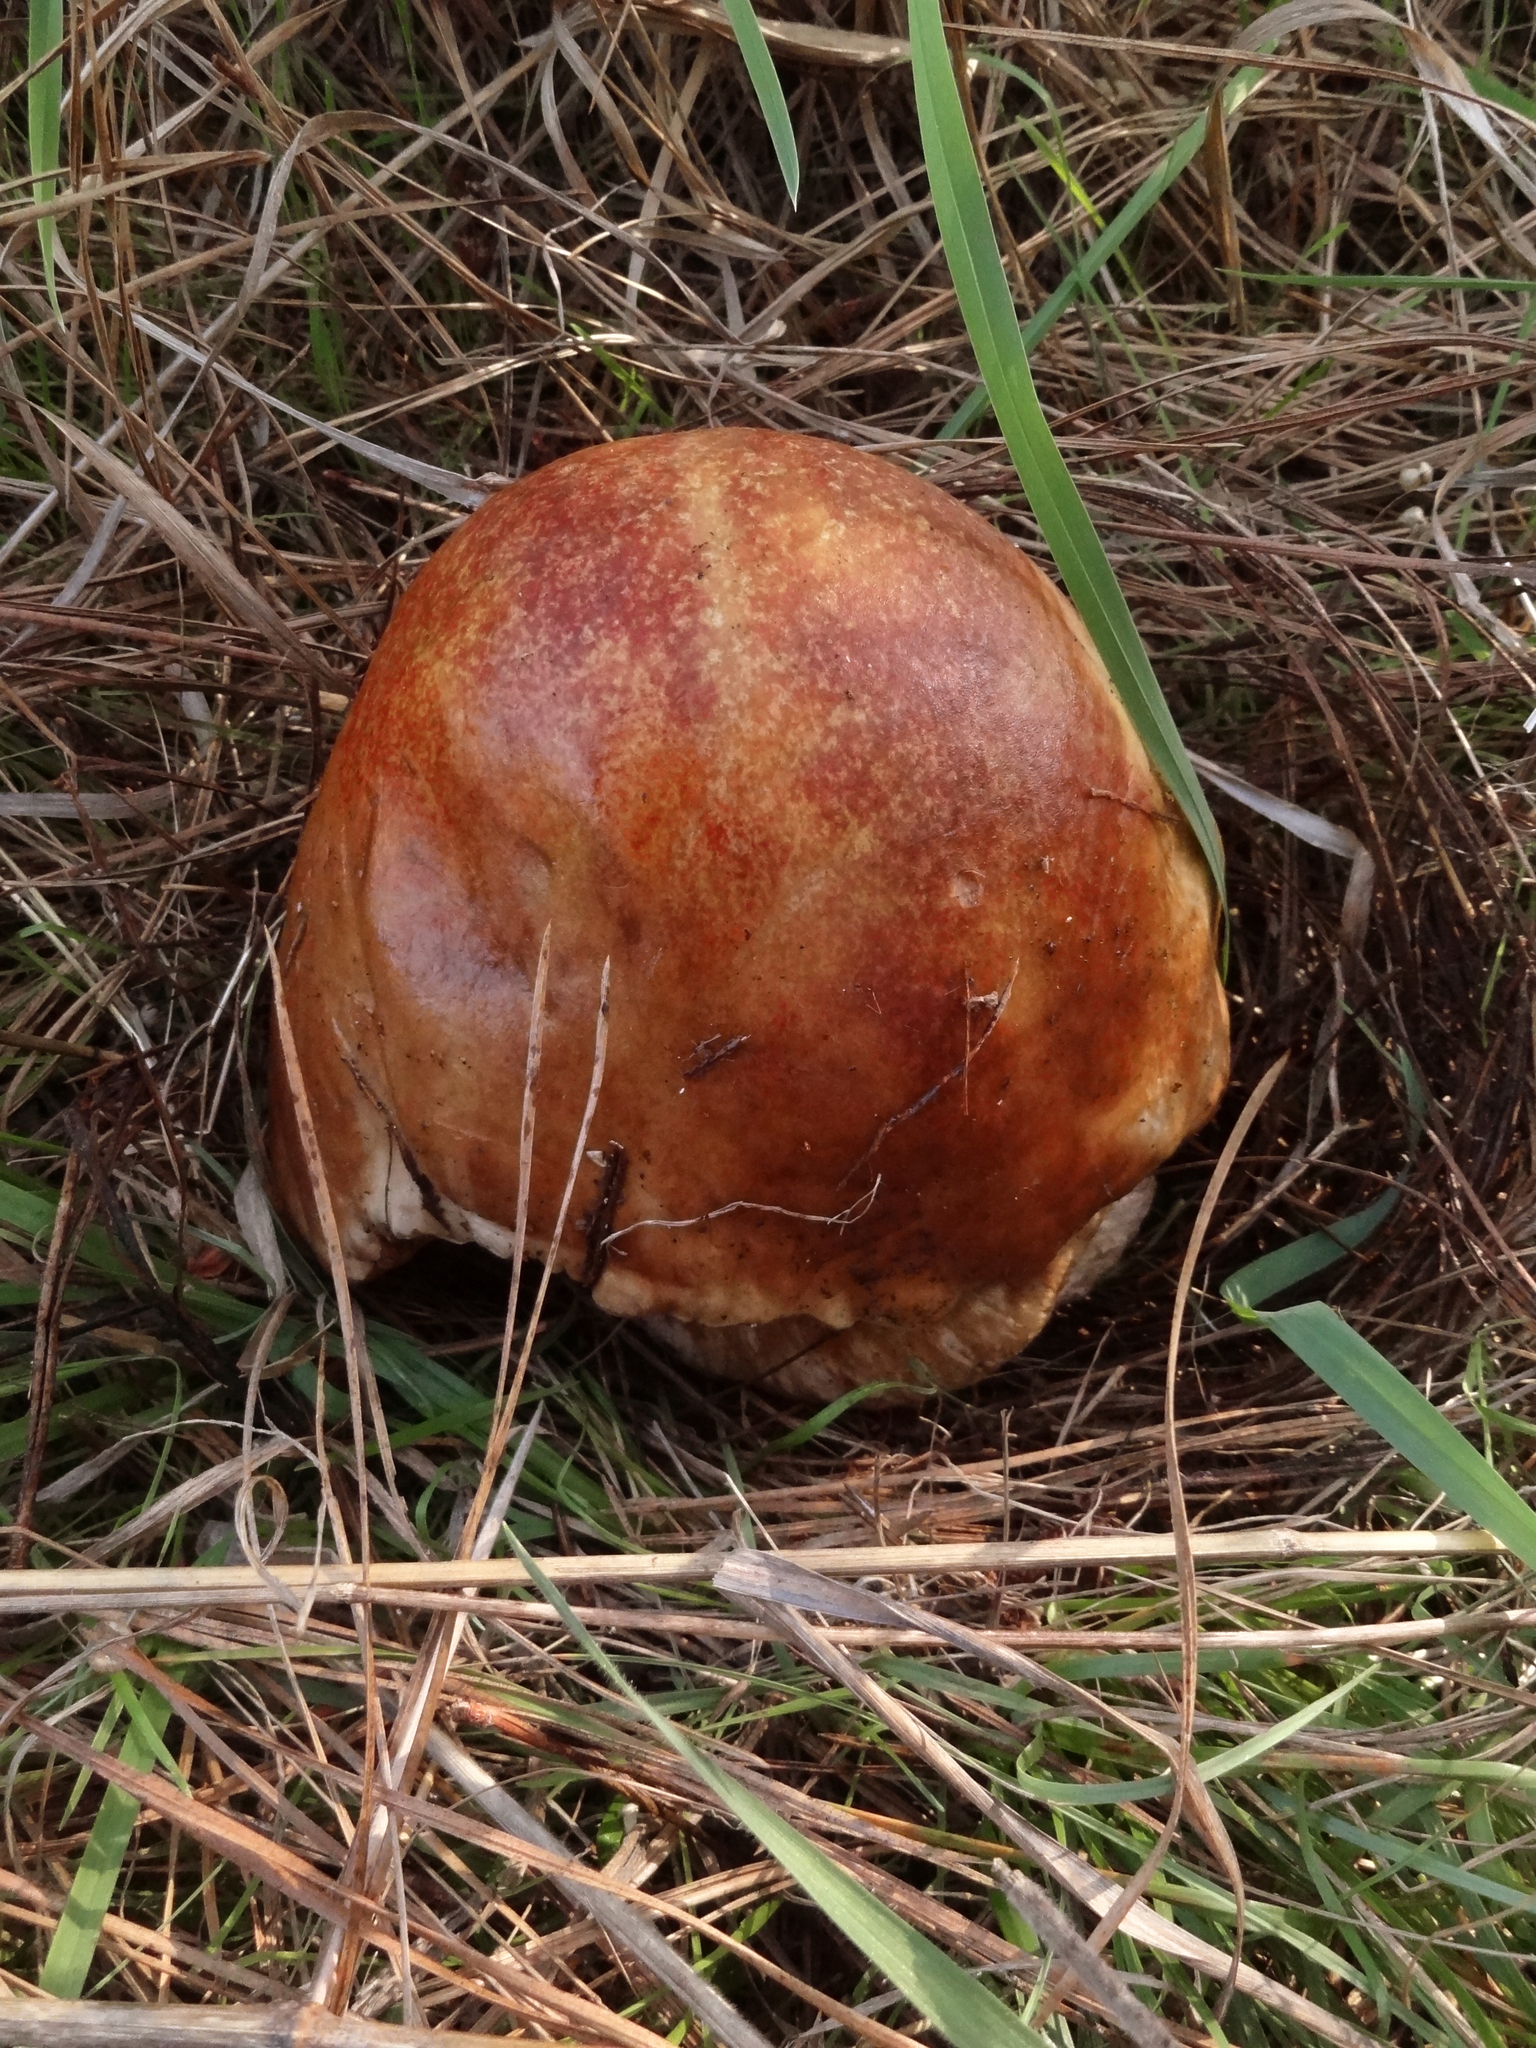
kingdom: Fungi
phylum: Basidiomycota
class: Agaricomycetes
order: Boletales
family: Boletaceae
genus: Boletus
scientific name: Boletus edulis
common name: Cep
